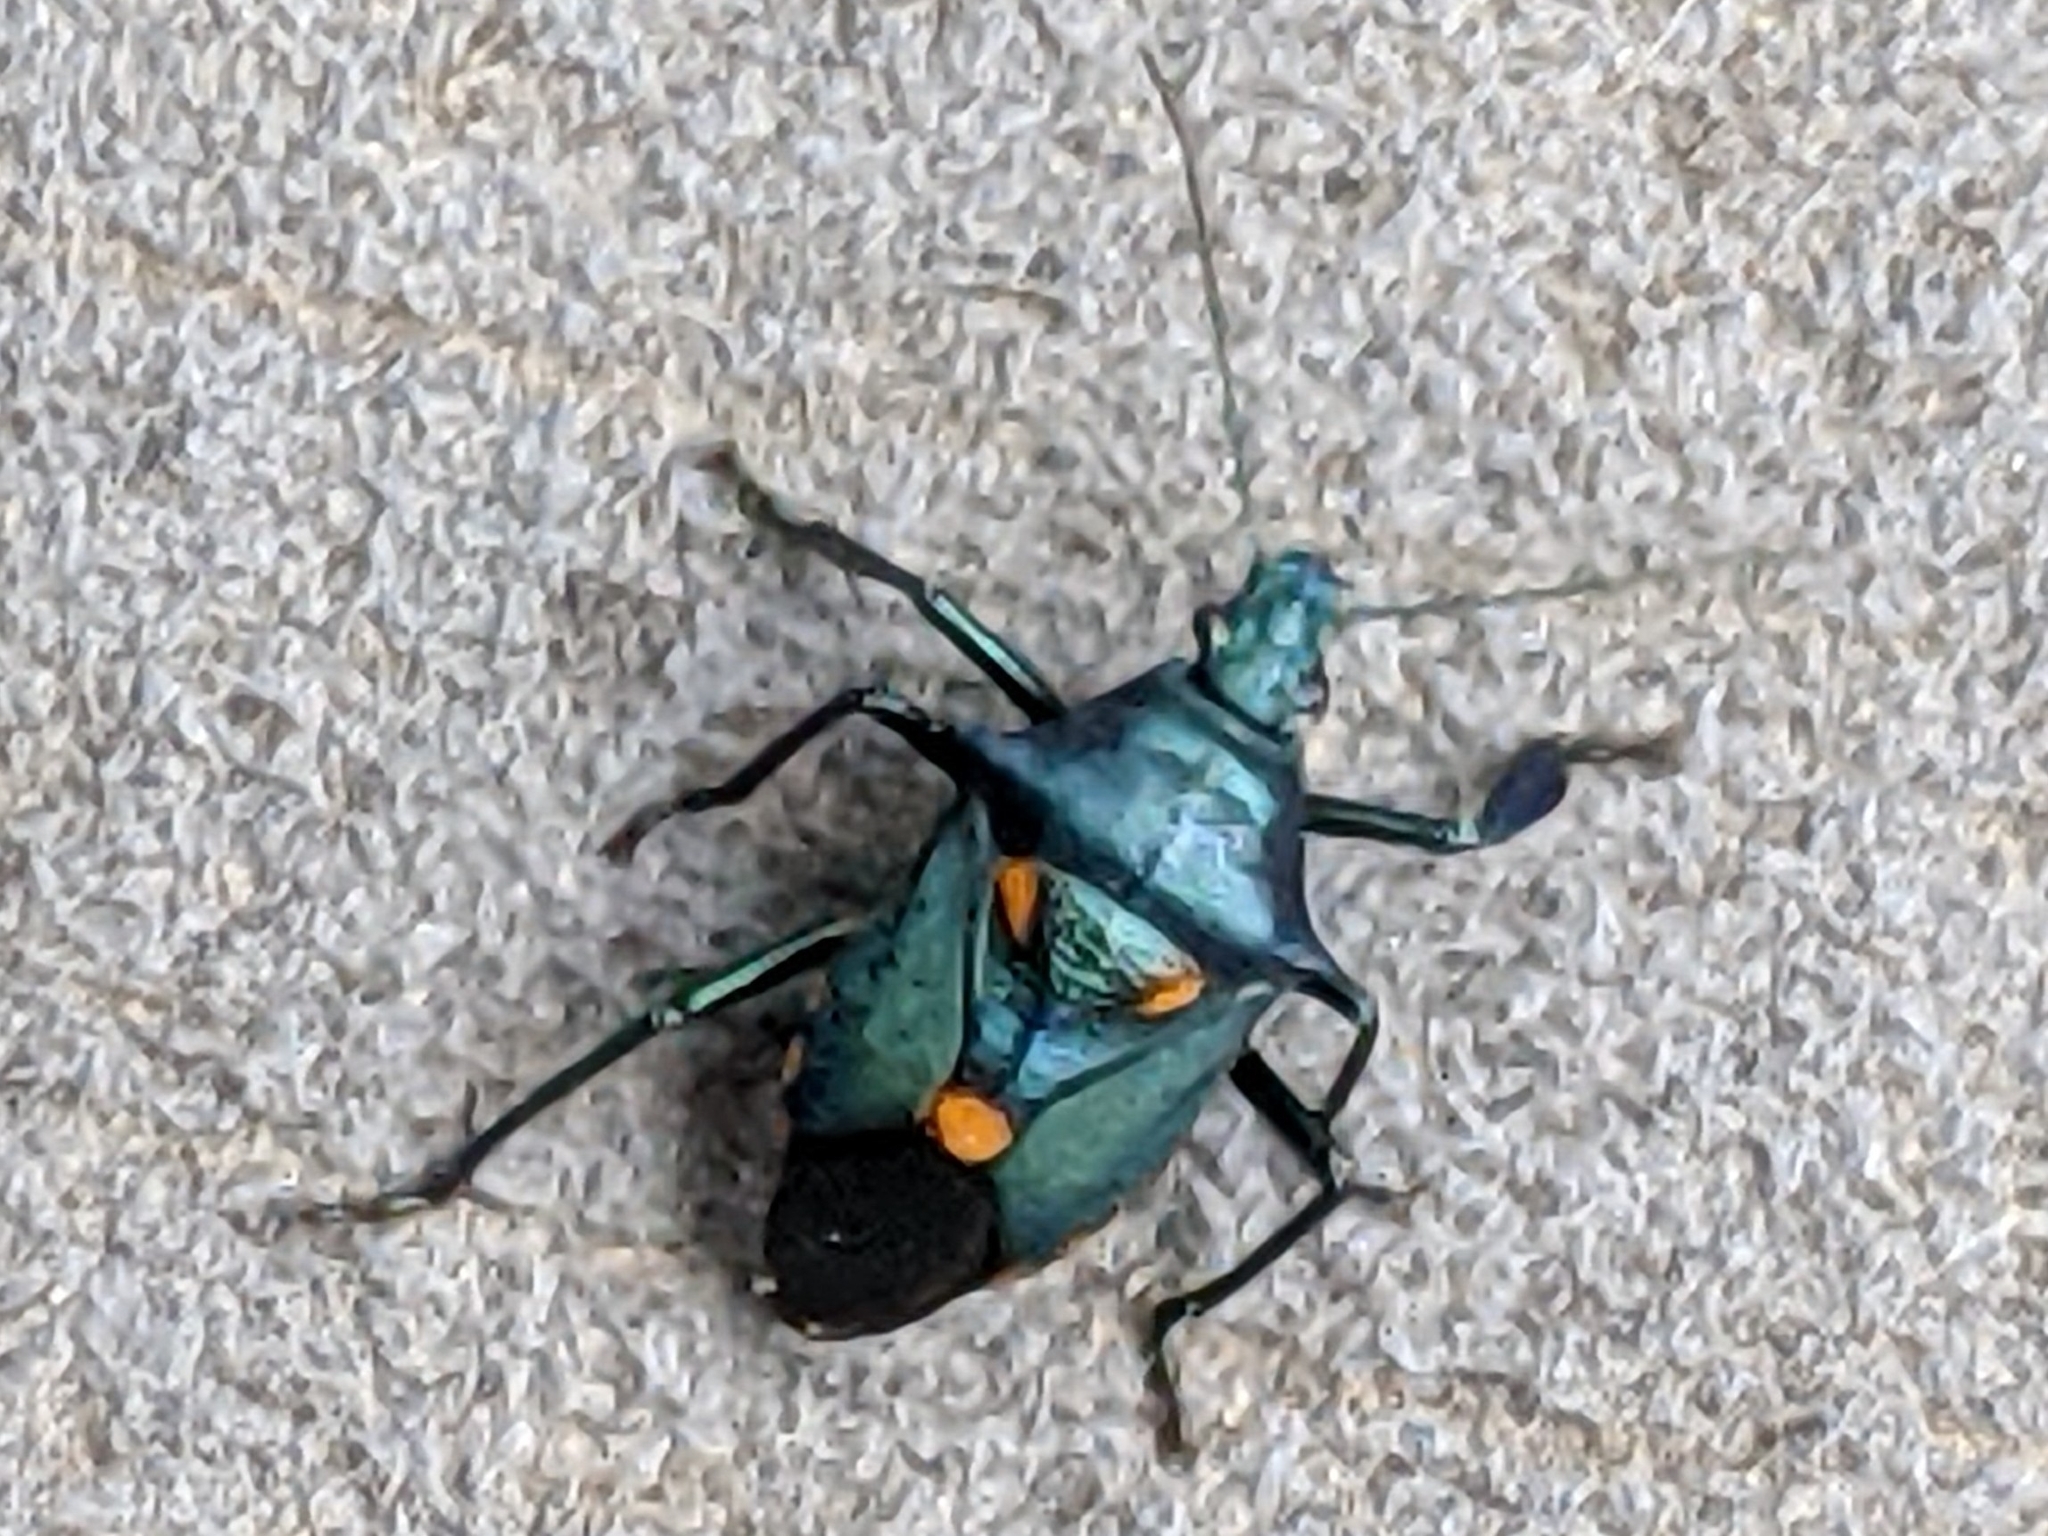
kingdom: Animalia
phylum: Arthropoda
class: Insecta
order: Hemiptera
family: Pentatomidae
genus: Euthyrhynchus
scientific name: Euthyrhynchus floridanus
